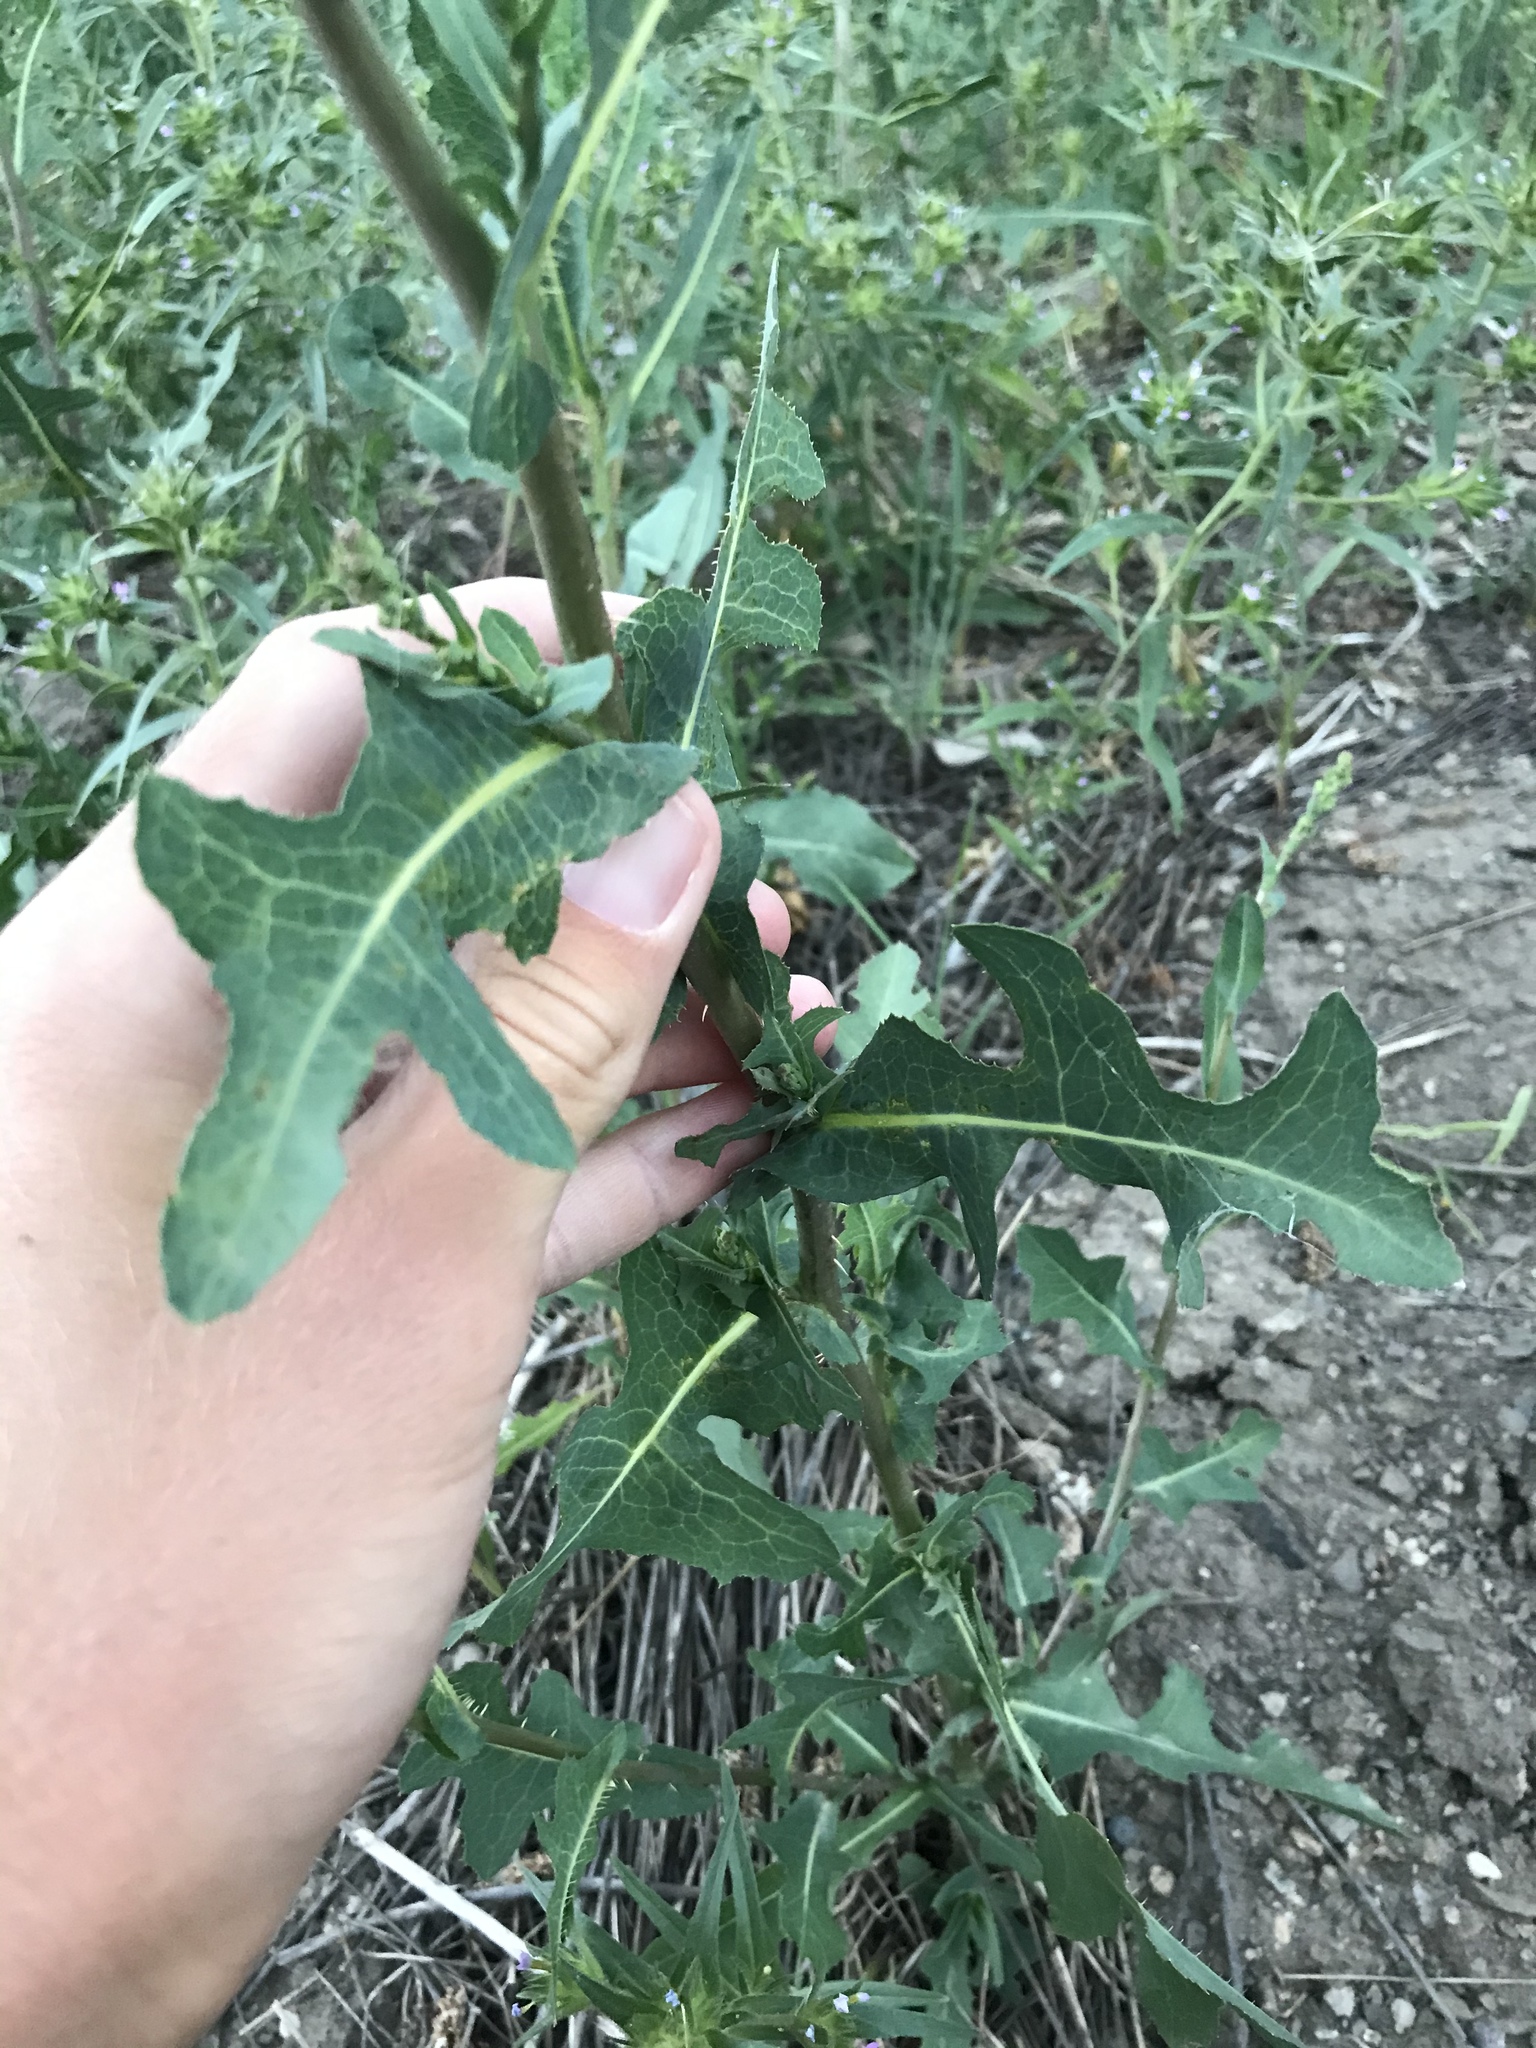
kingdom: Plantae
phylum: Tracheophyta
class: Magnoliopsida
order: Asterales
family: Asteraceae
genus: Lactuca
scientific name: Lactuca serriola
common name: Prickly lettuce
